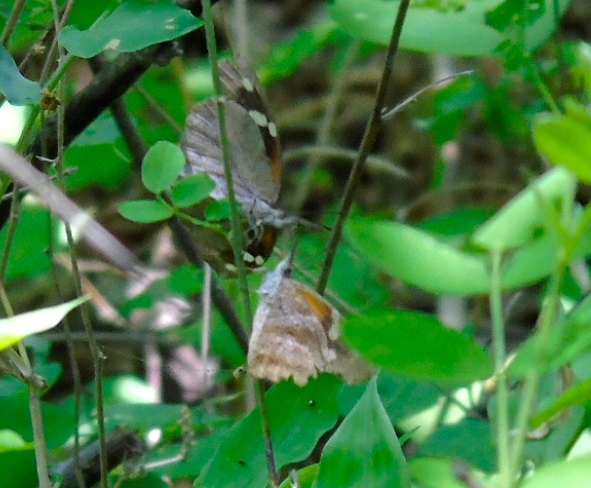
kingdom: Animalia
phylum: Arthropoda
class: Insecta
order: Lepidoptera
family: Nymphalidae
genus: Libytheana
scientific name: Libytheana carinenta
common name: American snout
